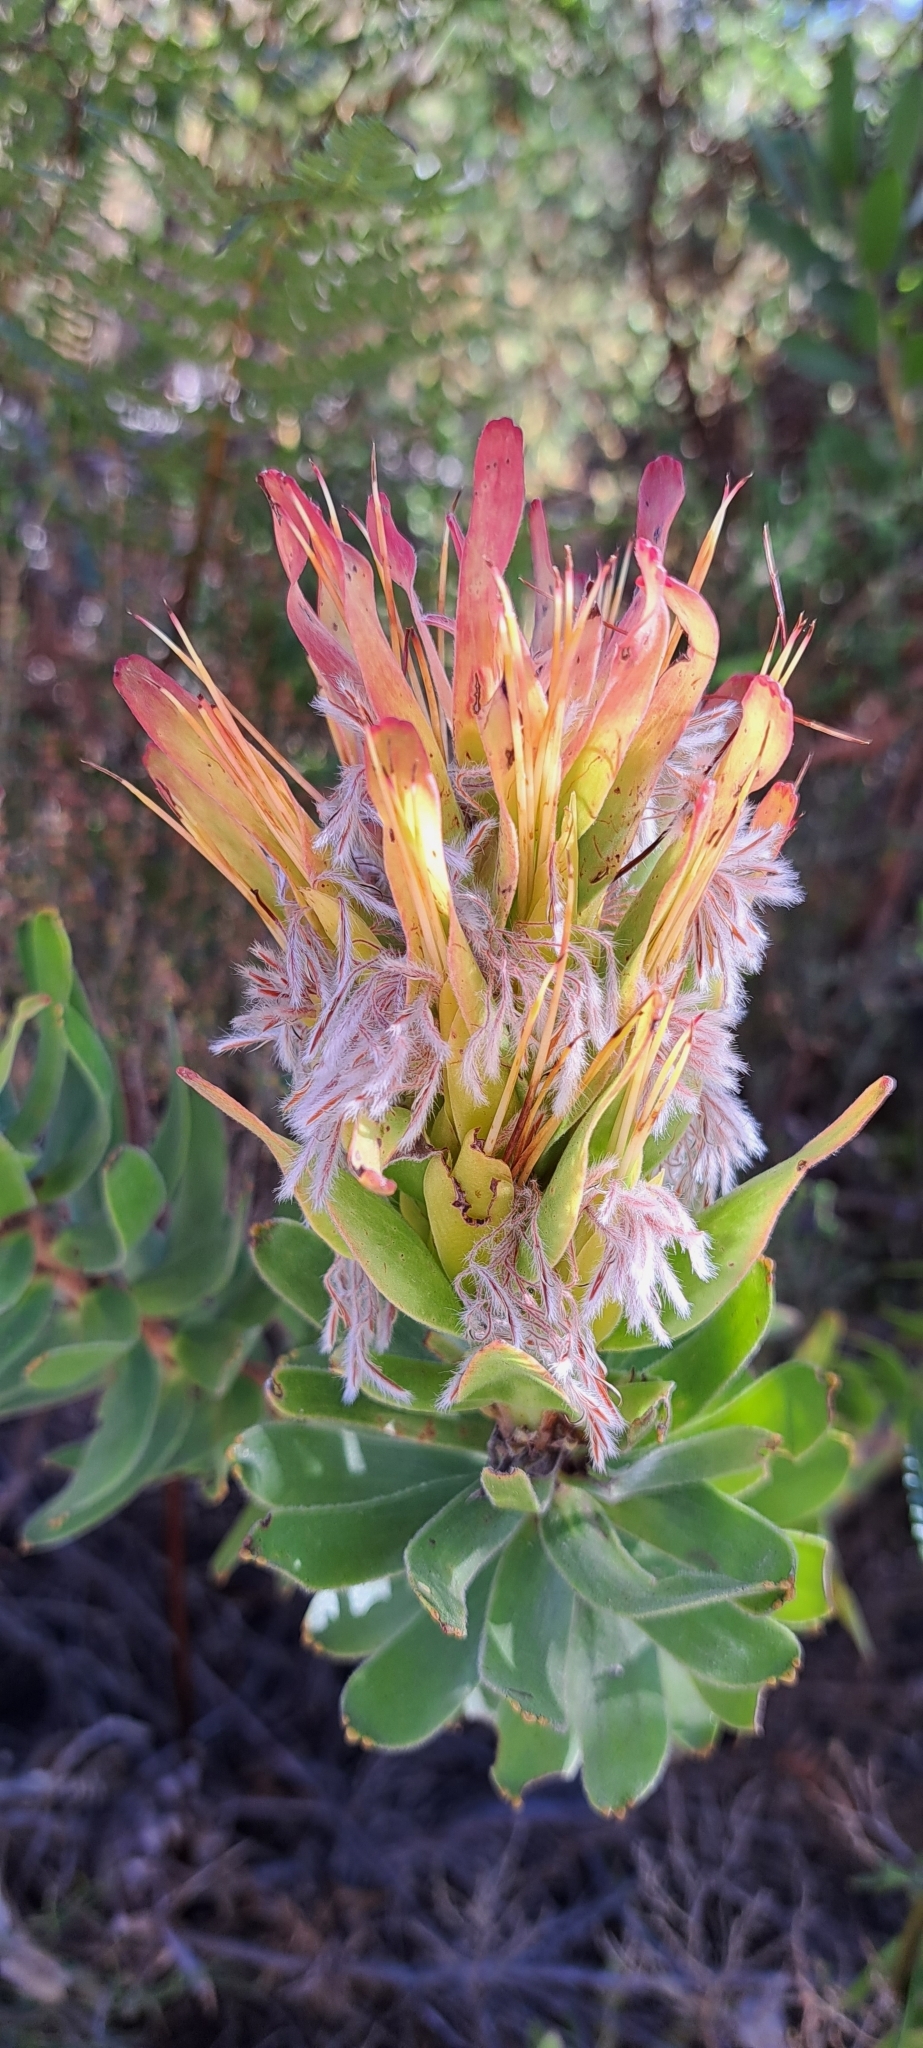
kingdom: Plantae
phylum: Tracheophyta
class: Magnoliopsida
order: Proteales
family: Proteaceae
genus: Mimetes
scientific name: Mimetes cucullatus
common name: Common pagoda
